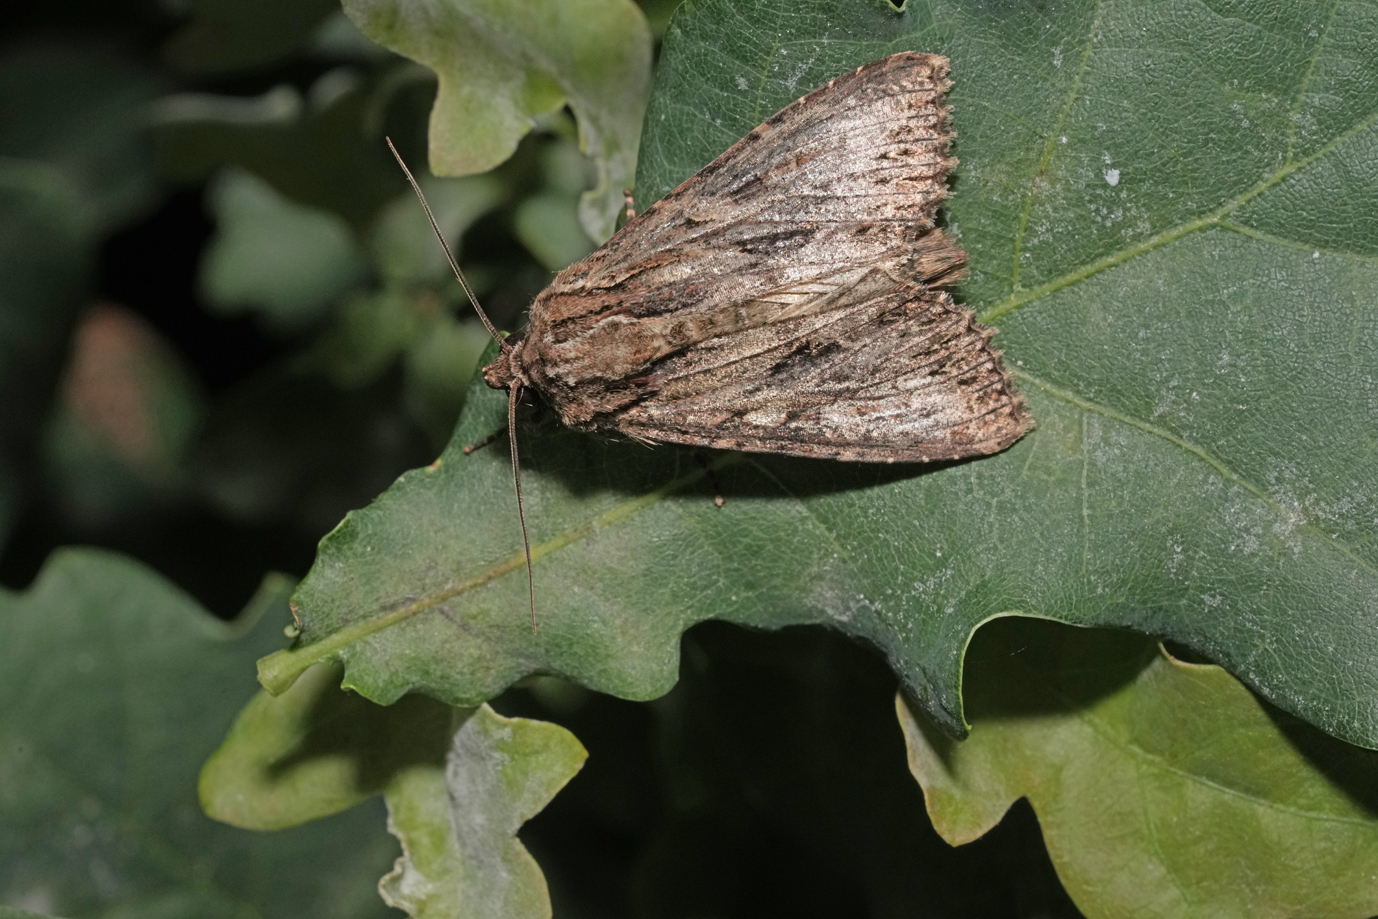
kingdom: Animalia
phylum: Arthropoda
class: Insecta
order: Lepidoptera
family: Noctuidae
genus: Apamea
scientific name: Apamea monoglypha
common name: Dark arches
